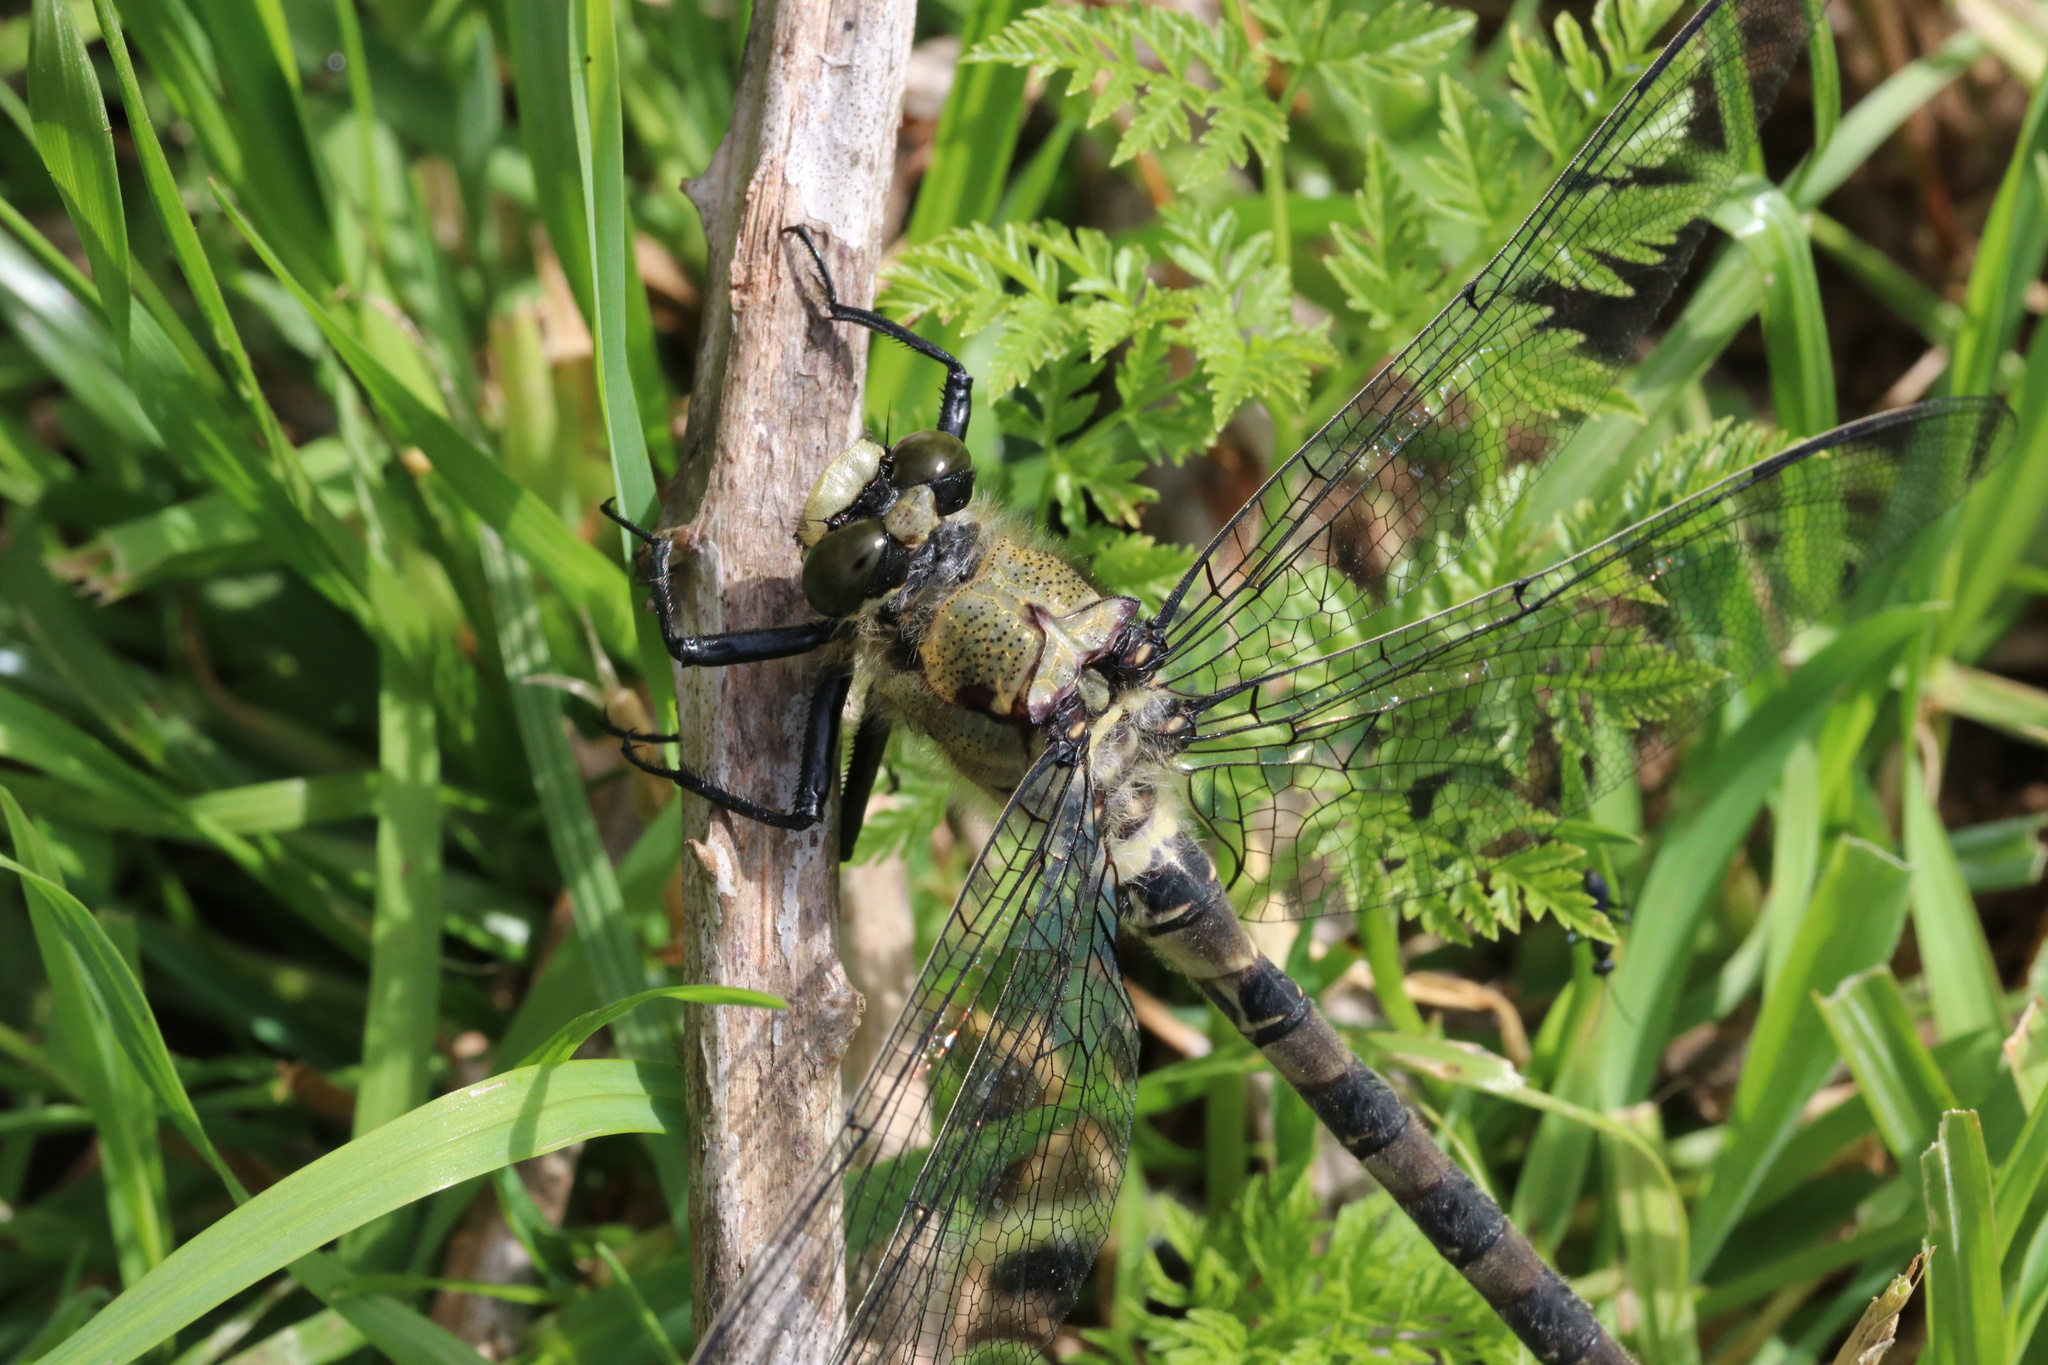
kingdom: Animalia
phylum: Arthropoda
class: Insecta
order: Odonata
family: Petaluridae
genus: Phenes
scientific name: Phenes raptor
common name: Chilean petaltail
